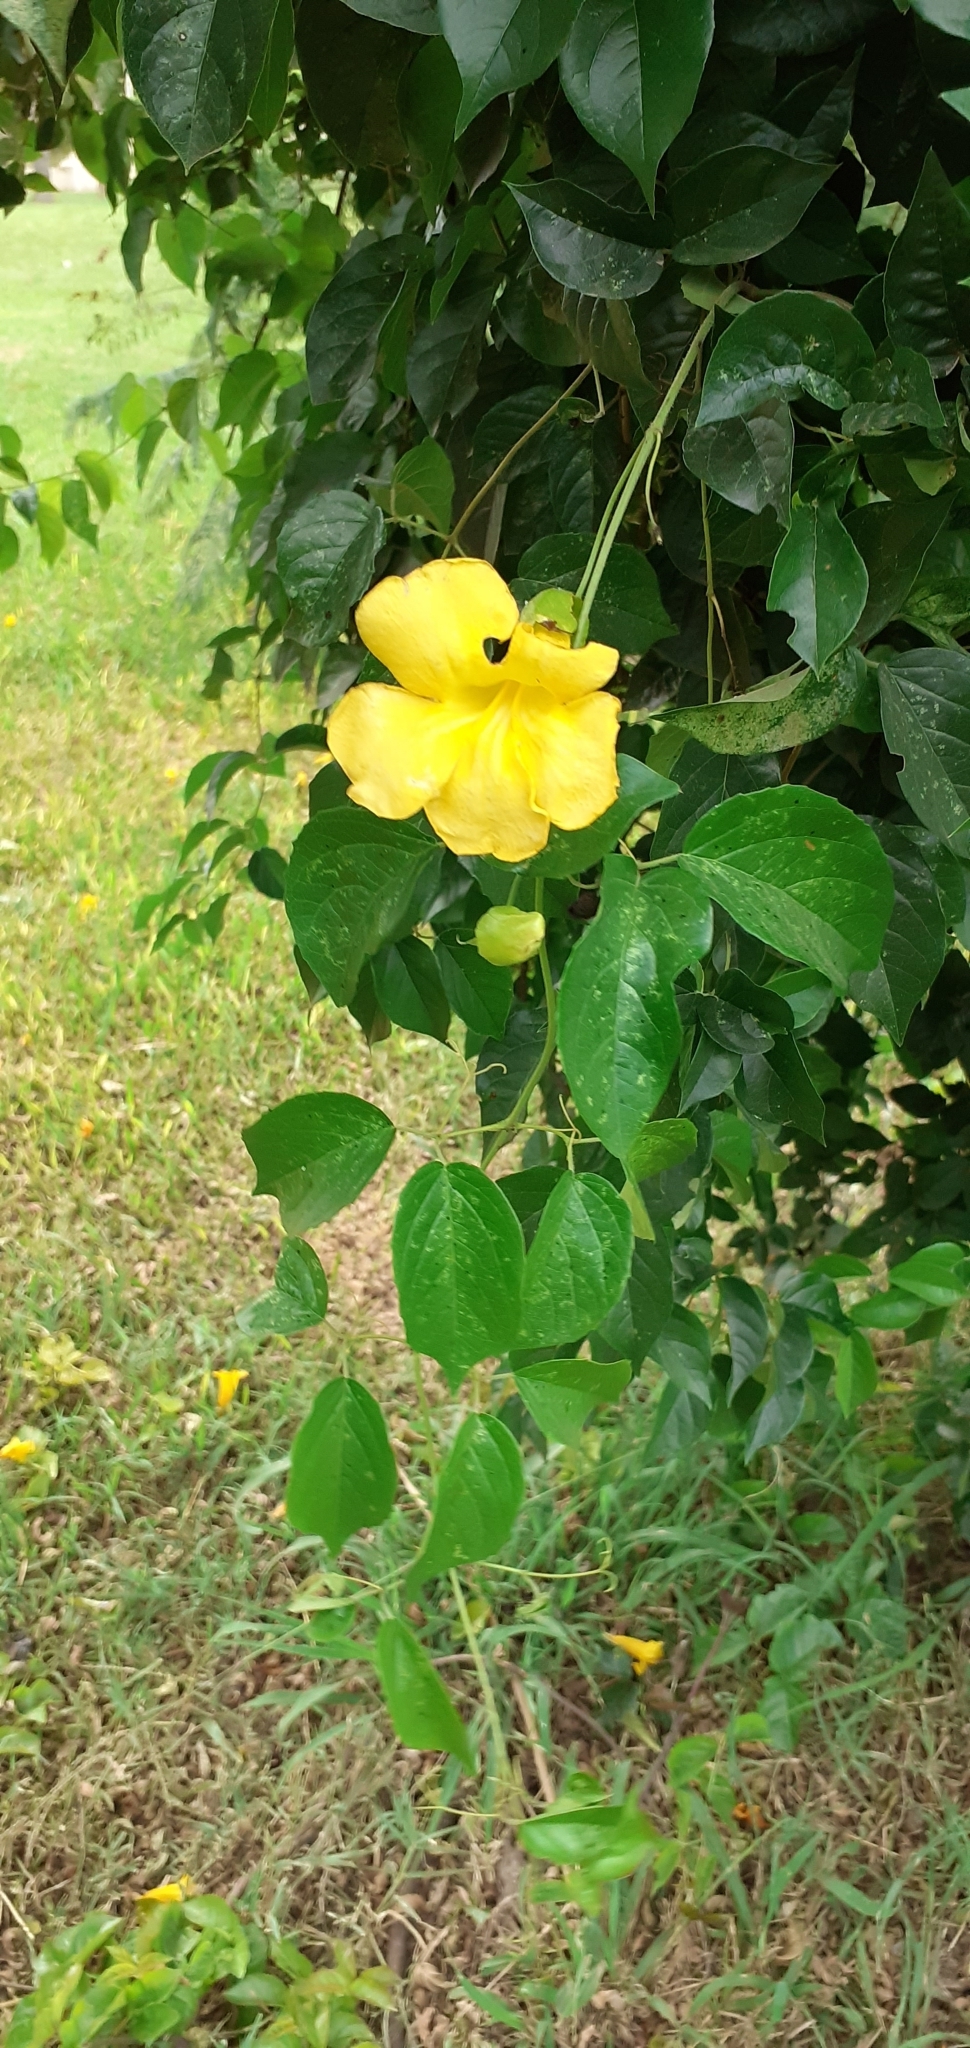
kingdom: Plantae
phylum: Tracheophyta
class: Magnoliopsida
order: Lamiales
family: Bignoniaceae
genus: Dolichandra
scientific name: Dolichandra unguis-cati
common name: Catclaw vine
